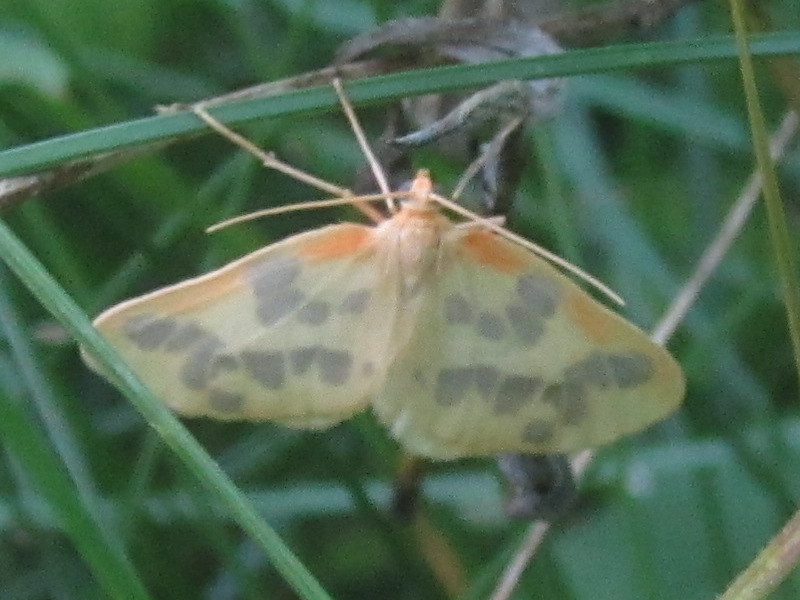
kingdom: Animalia
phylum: Arthropoda
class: Insecta
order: Lepidoptera
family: Geometridae
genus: Eubaphe
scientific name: Eubaphe mendica
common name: Beggar
